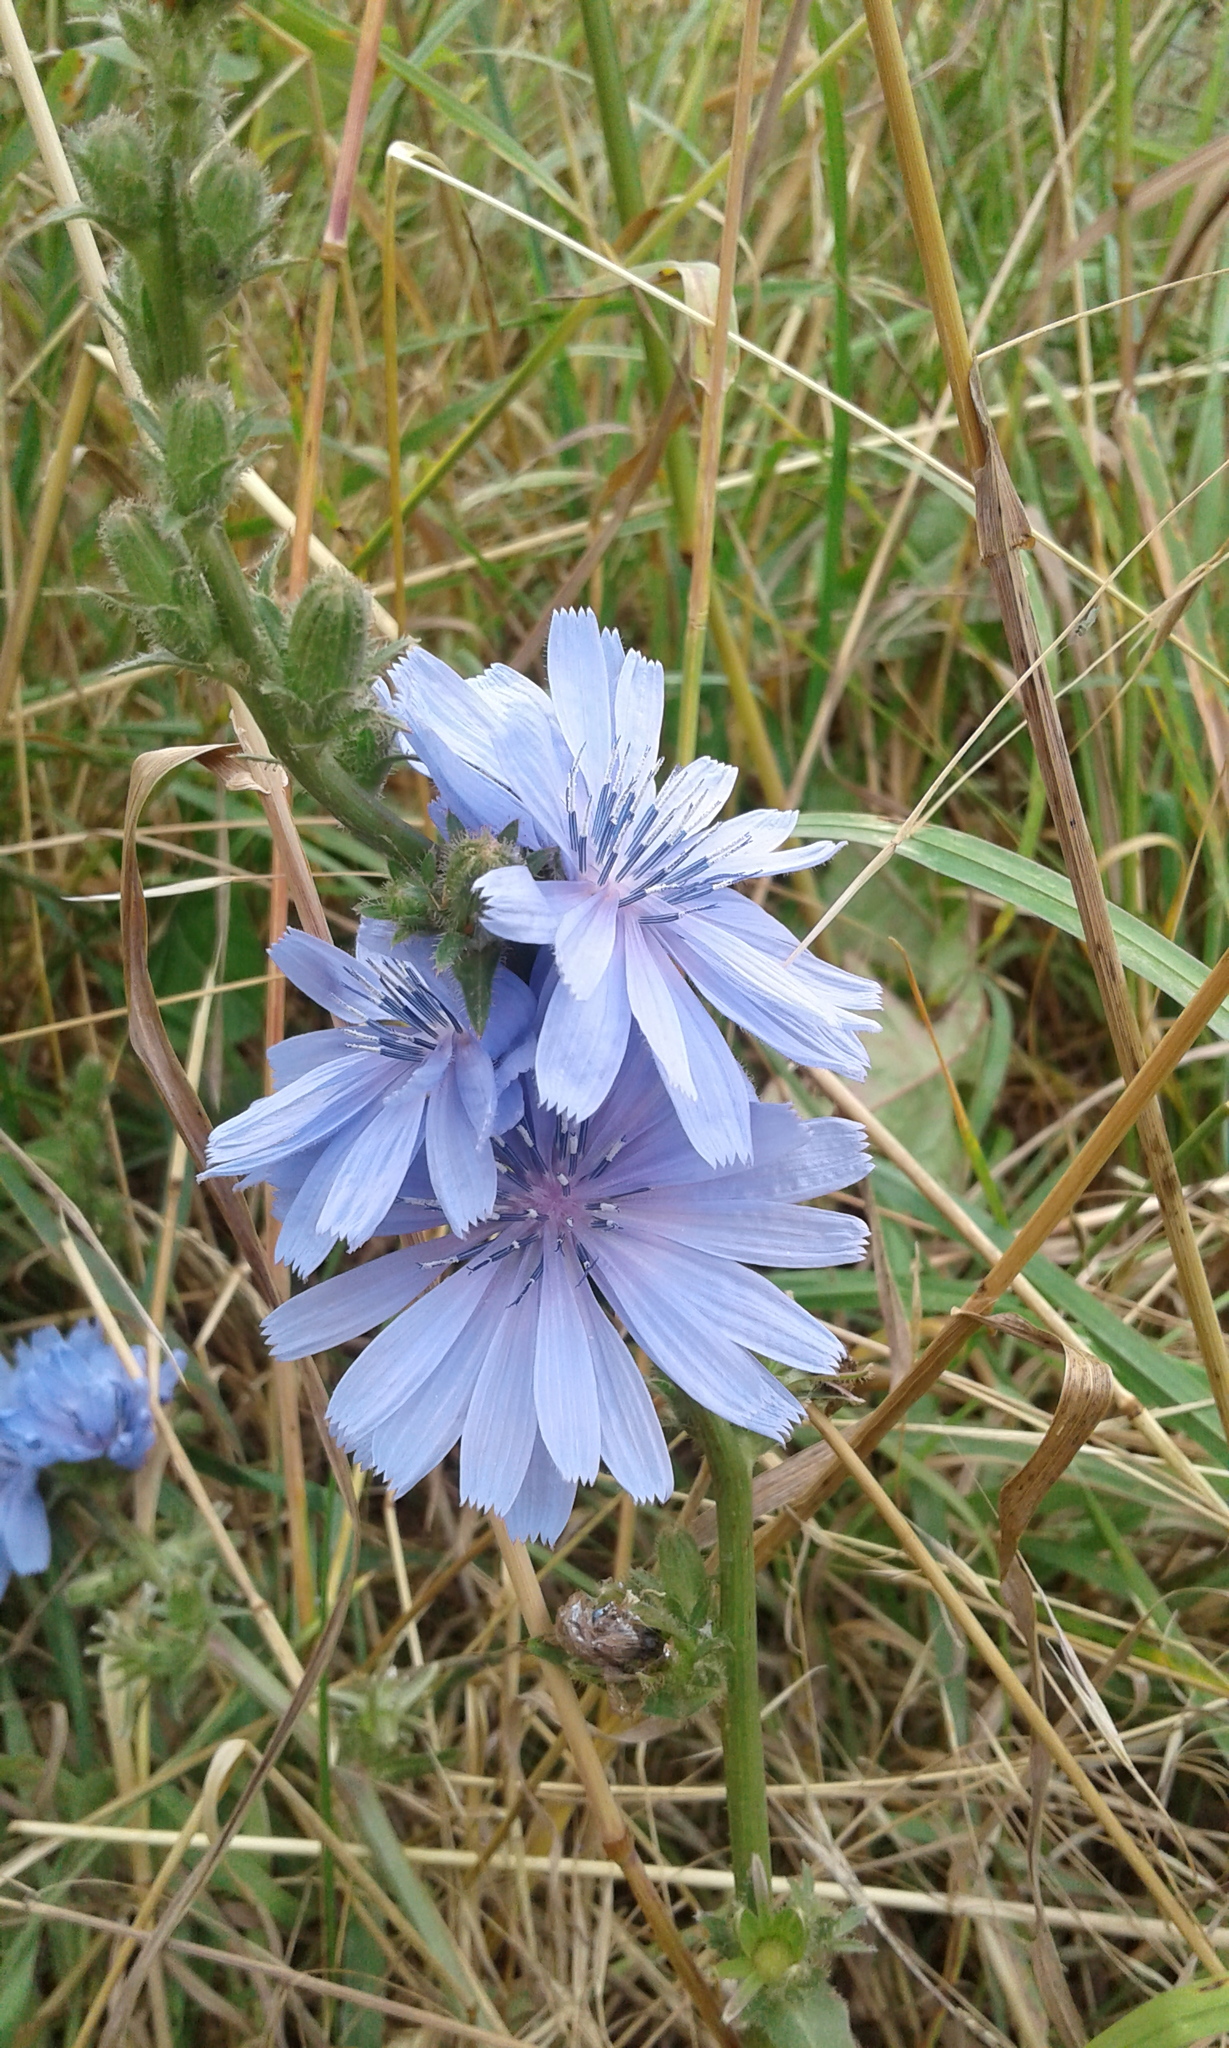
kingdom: Plantae
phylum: Tracheophyta
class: Magnoliopsida
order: Asterales
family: Asteraceae
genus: Cichorium
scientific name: Cichorium intybus
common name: Chicory
